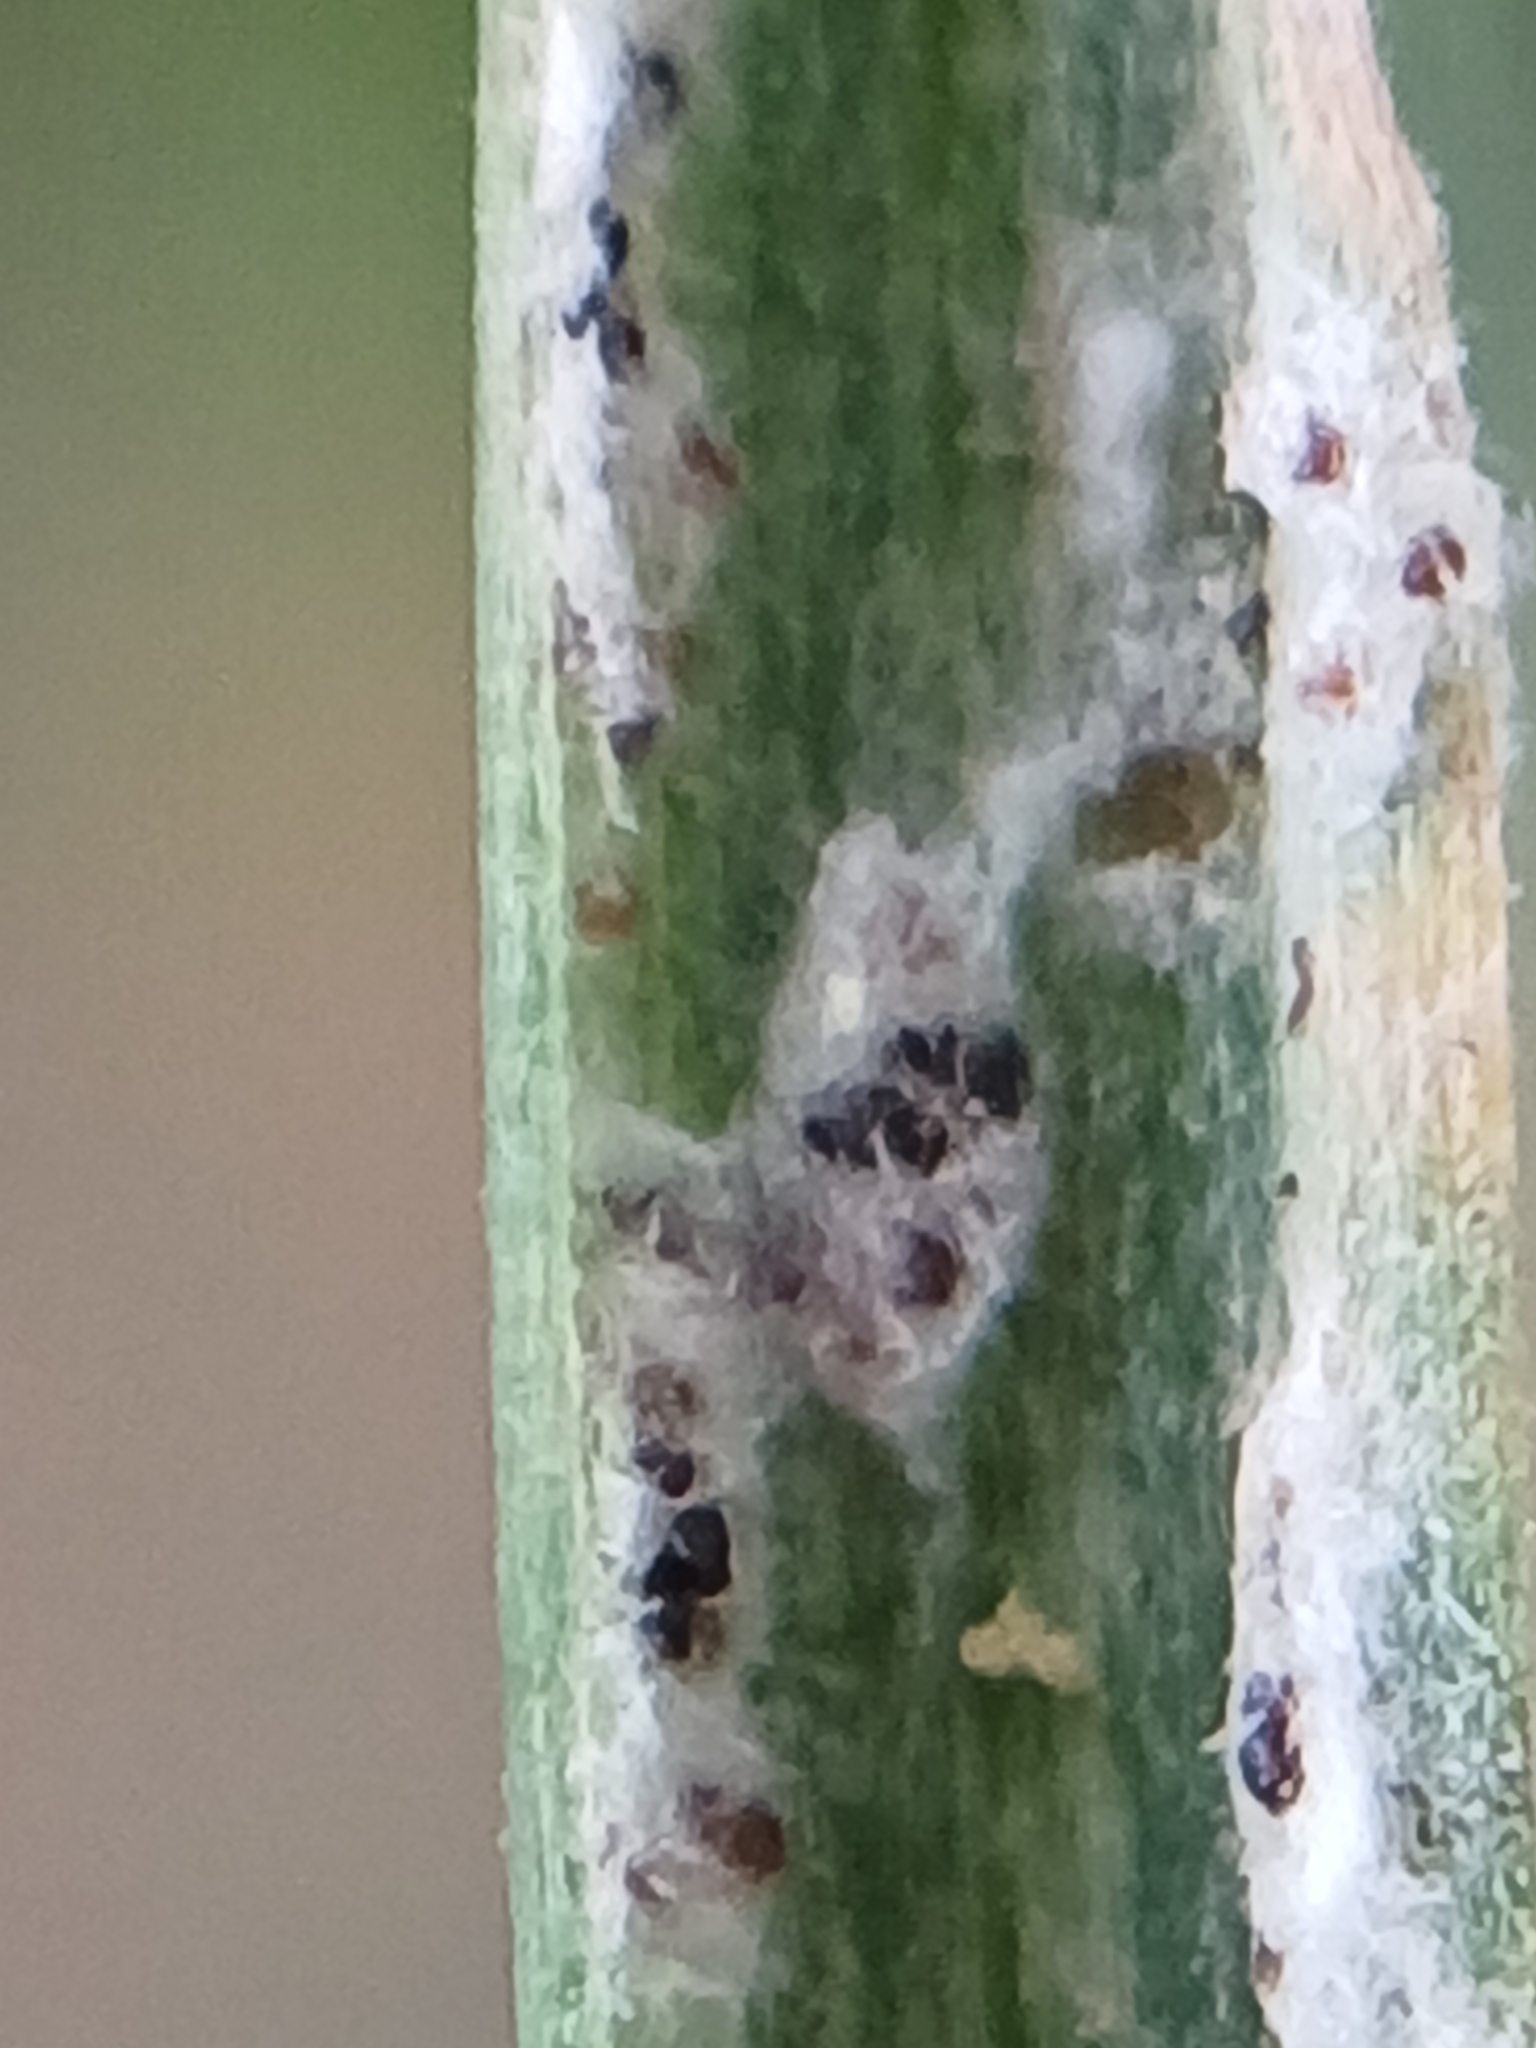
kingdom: Fungi
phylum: Ascomycota
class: Leotiomycetes
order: Helotiales
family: Erysiphaceae
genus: Blumeria
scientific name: Blumeria graminicola
